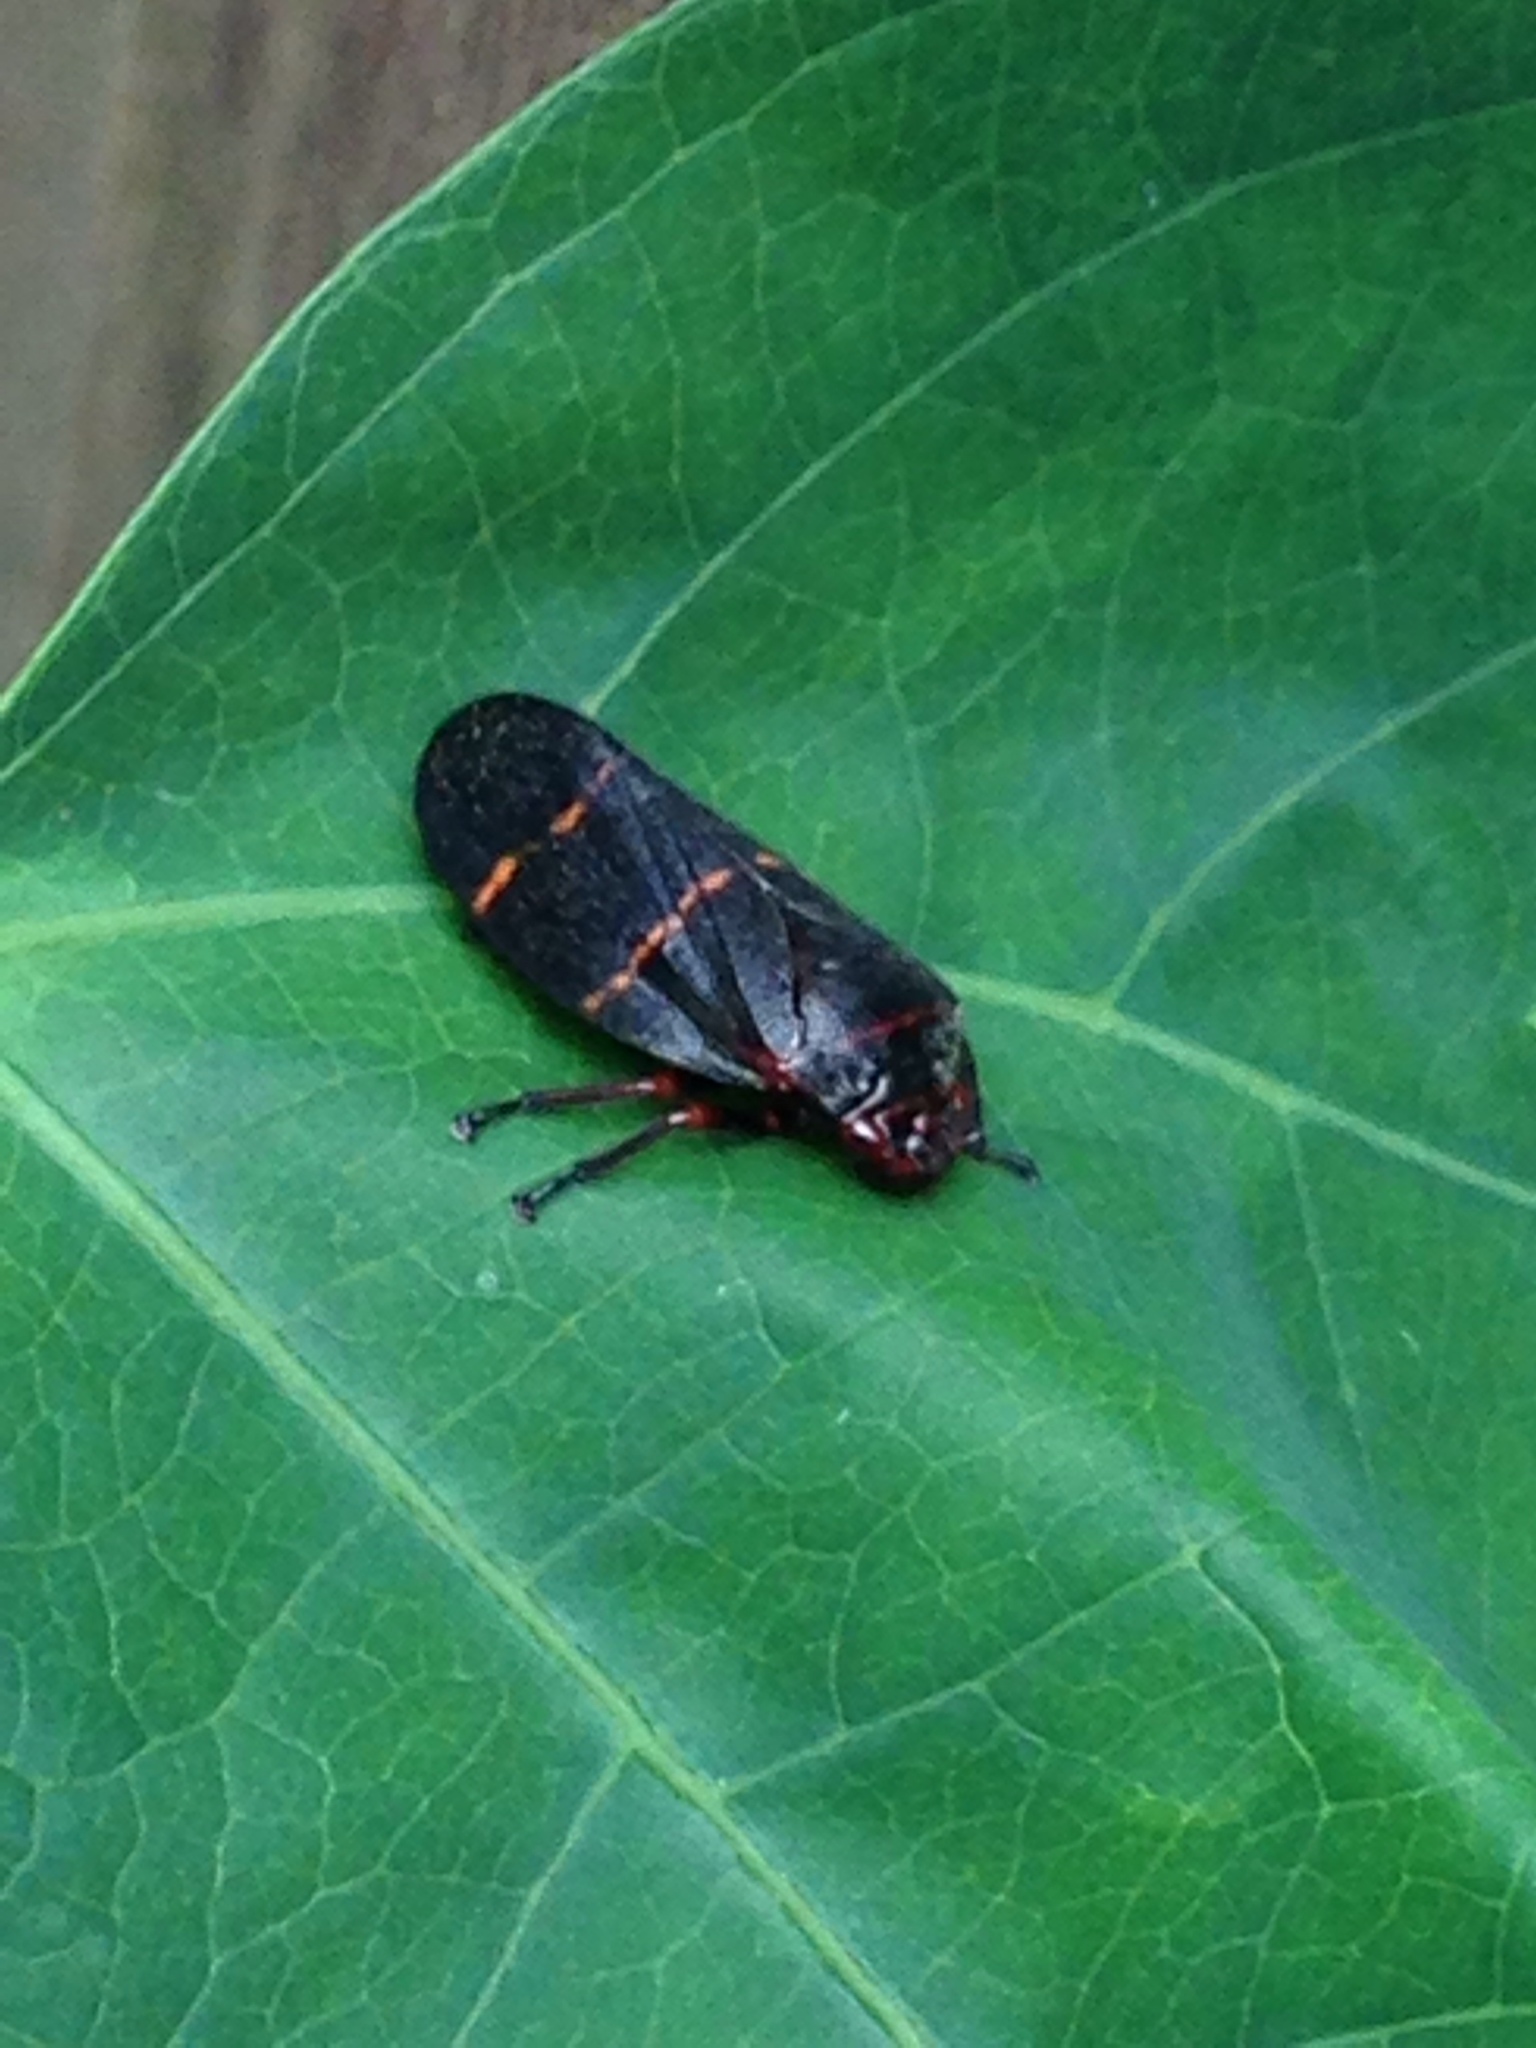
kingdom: Animalia
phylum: Arthropoda
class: Insecta
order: Hemiptera
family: Cercopidae
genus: Prosapia
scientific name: Prosapia bicincta
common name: Twolined spittlebug
